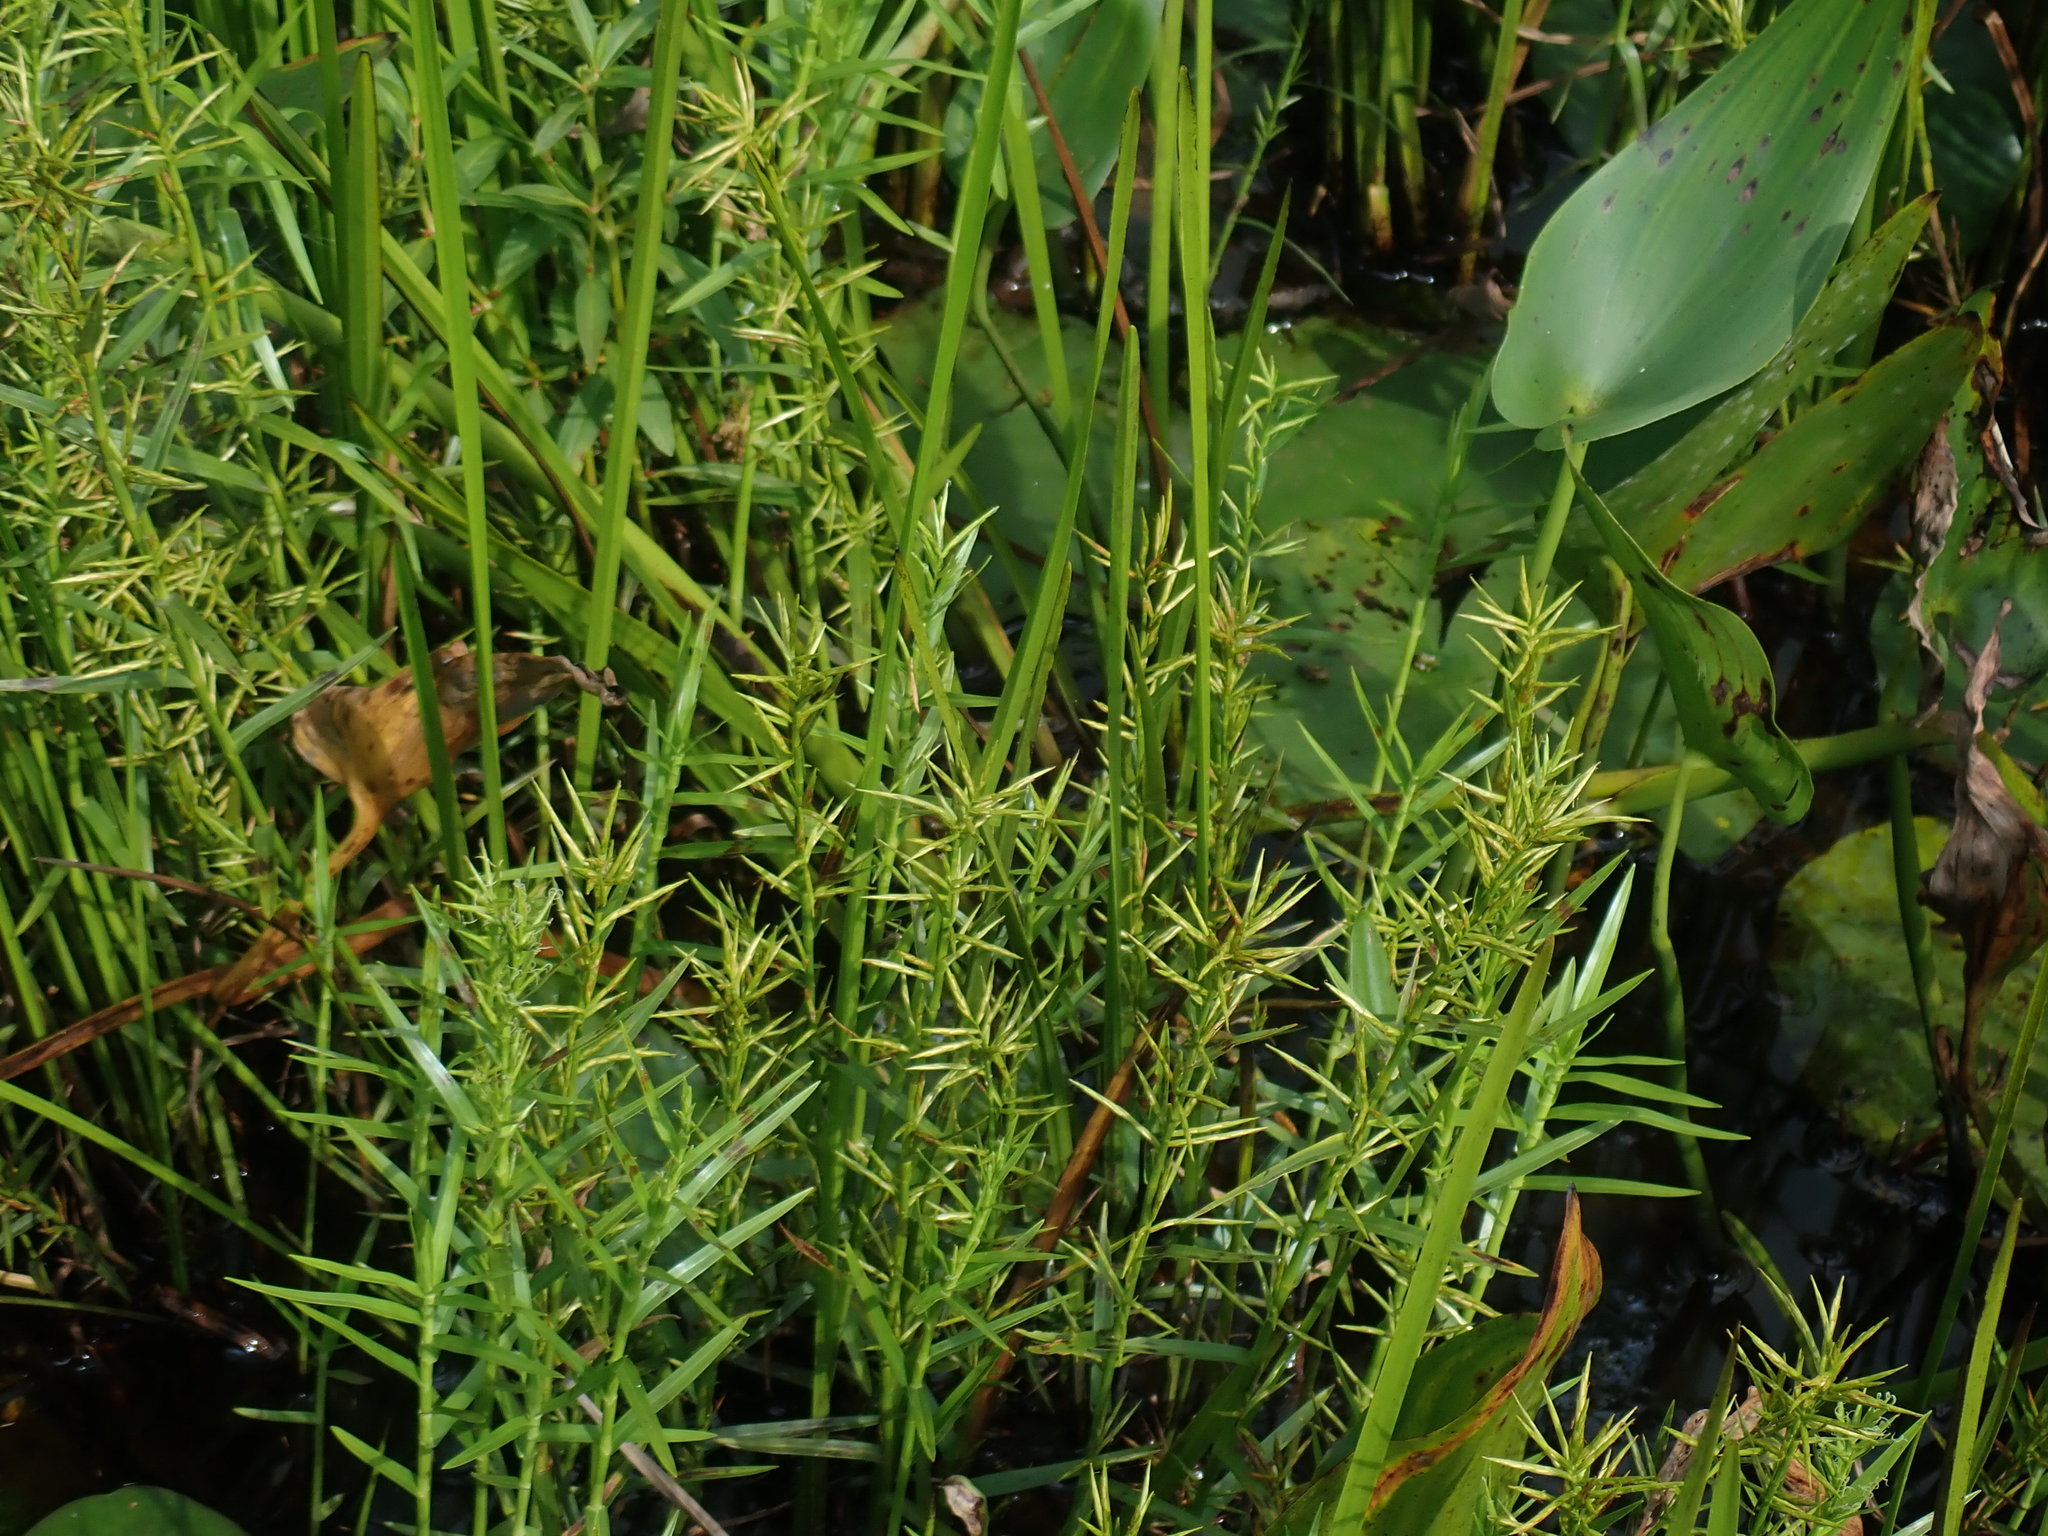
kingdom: Plantae
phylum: Tracheophyta
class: Liliopsida
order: Poales
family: Cyperaceae
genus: Dulichium
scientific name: Dulichium arundinaceum
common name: Three-way sedge
